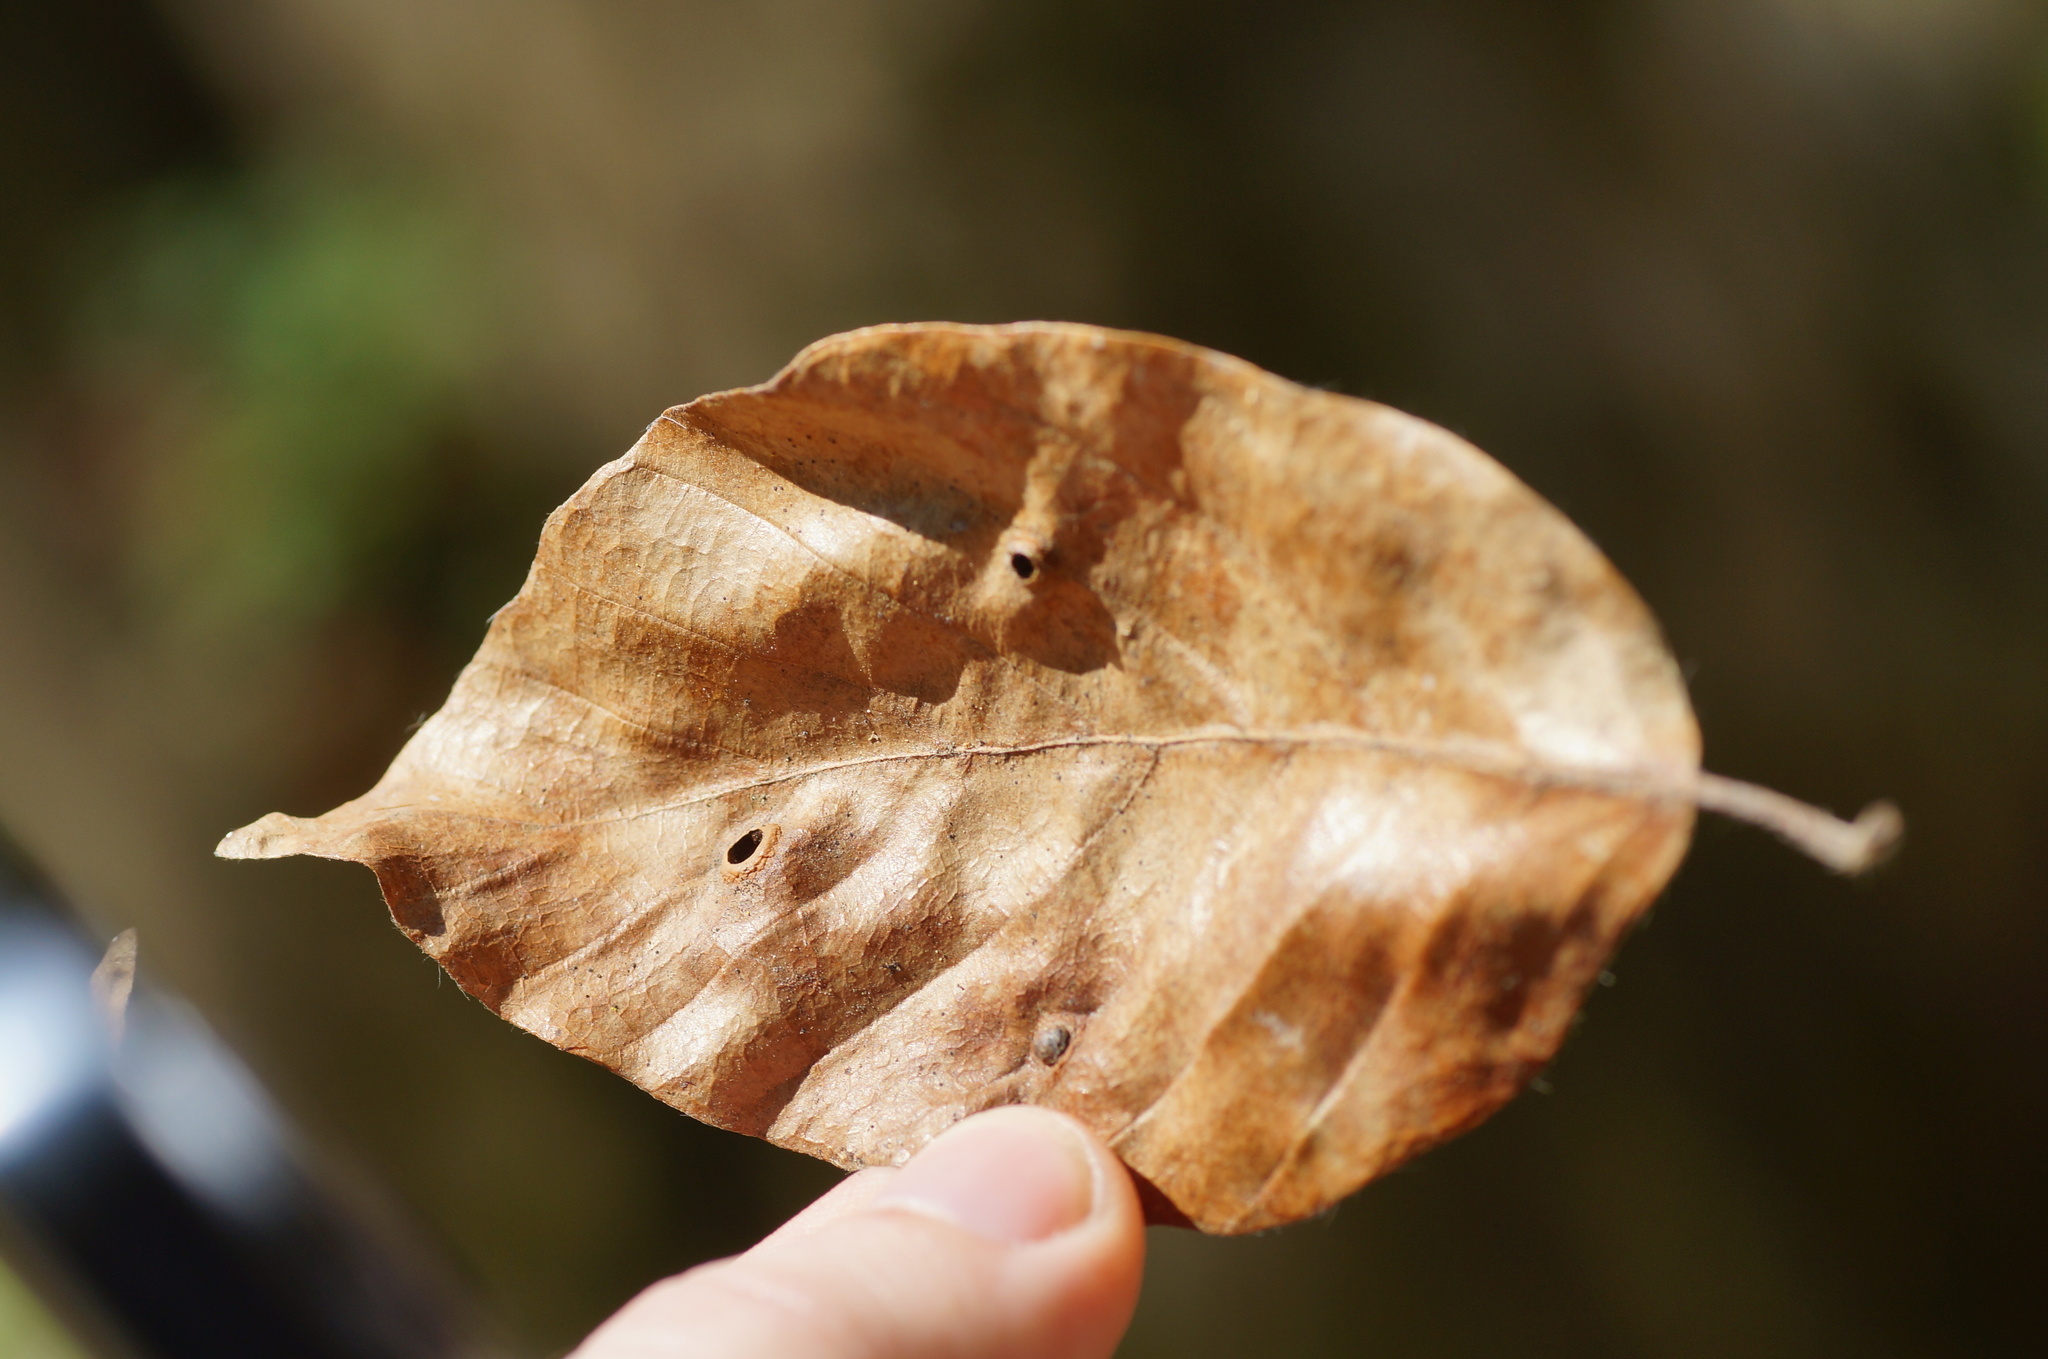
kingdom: Plantae
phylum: Tracheophyta
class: Magnoliopsida
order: Fagales
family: Fagaceae
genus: Fagus
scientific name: Fagus orientalis
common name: Oriental beech
